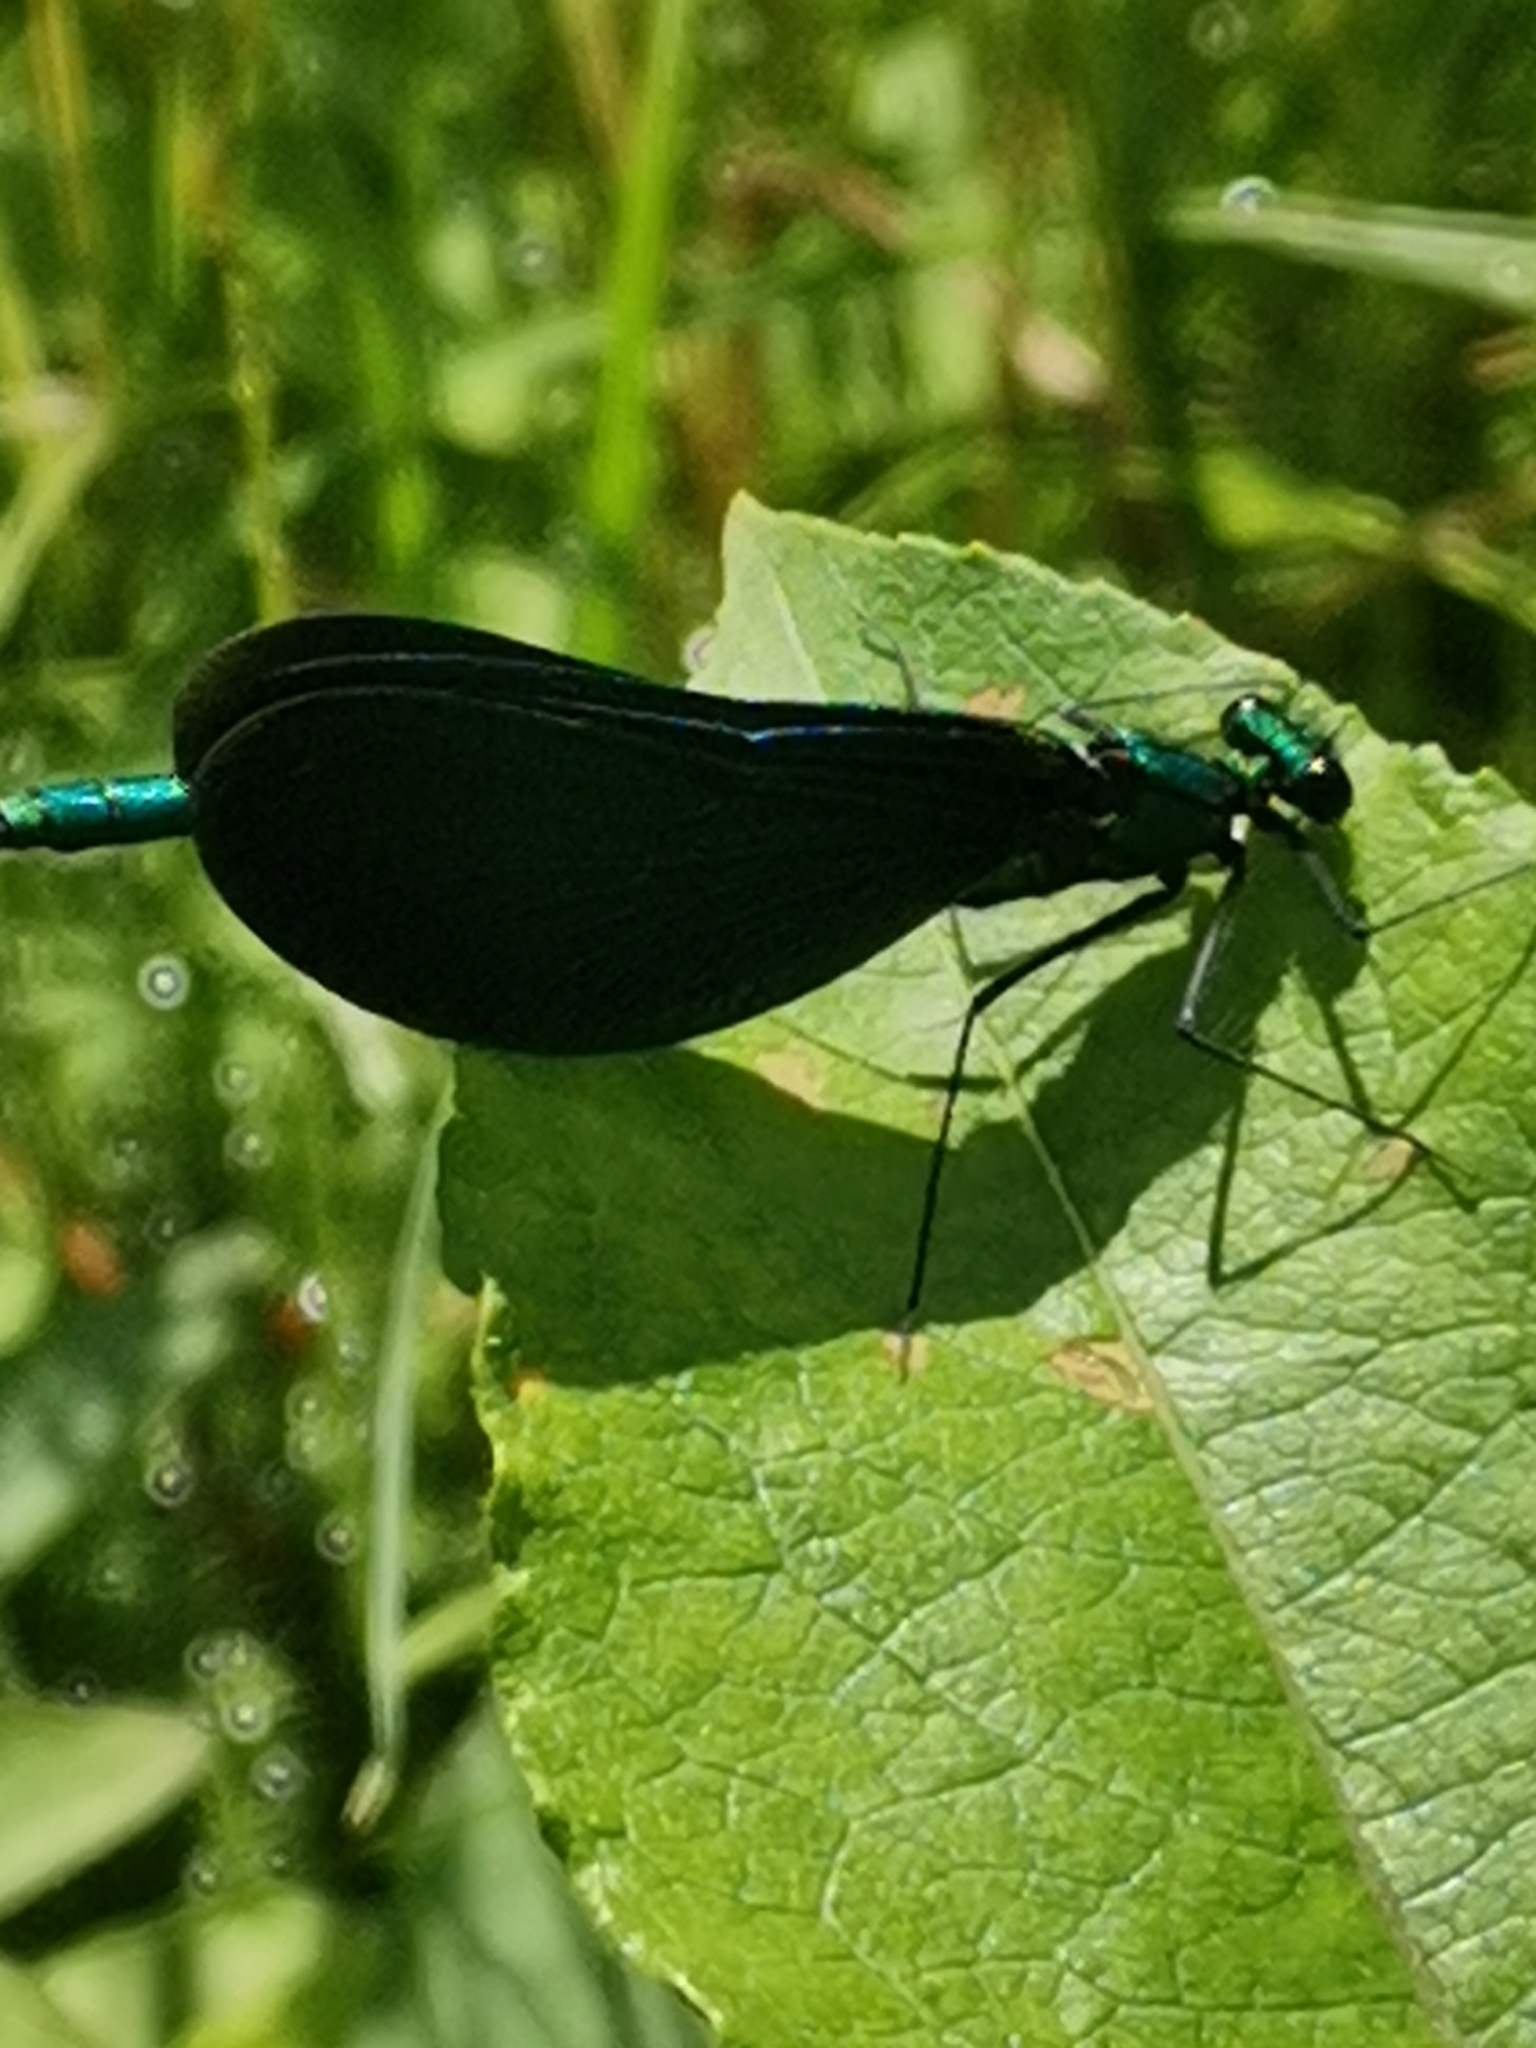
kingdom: Animalia
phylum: Arthropoda
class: Insecta
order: Odonata
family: Calopterygidae
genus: Calopteryx
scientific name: Calopteryx virgo
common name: Beautiful demoiselle
